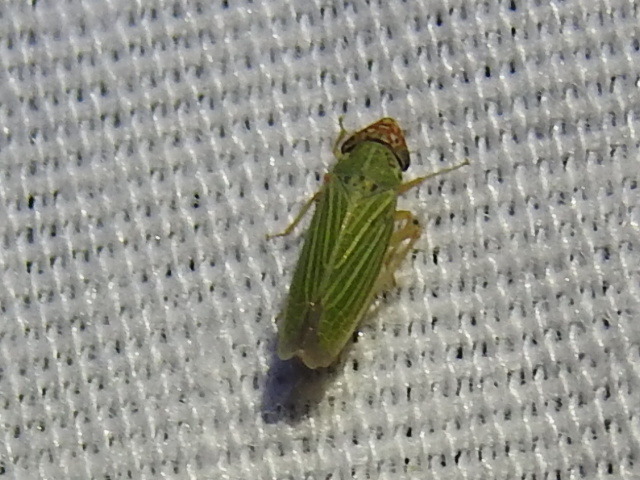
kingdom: Animalia
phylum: Arthropoda
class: Insecta
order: Hemiptera
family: Cicadellidae
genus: Xyphon
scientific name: Xyphon reticulatum
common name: Planthopper
